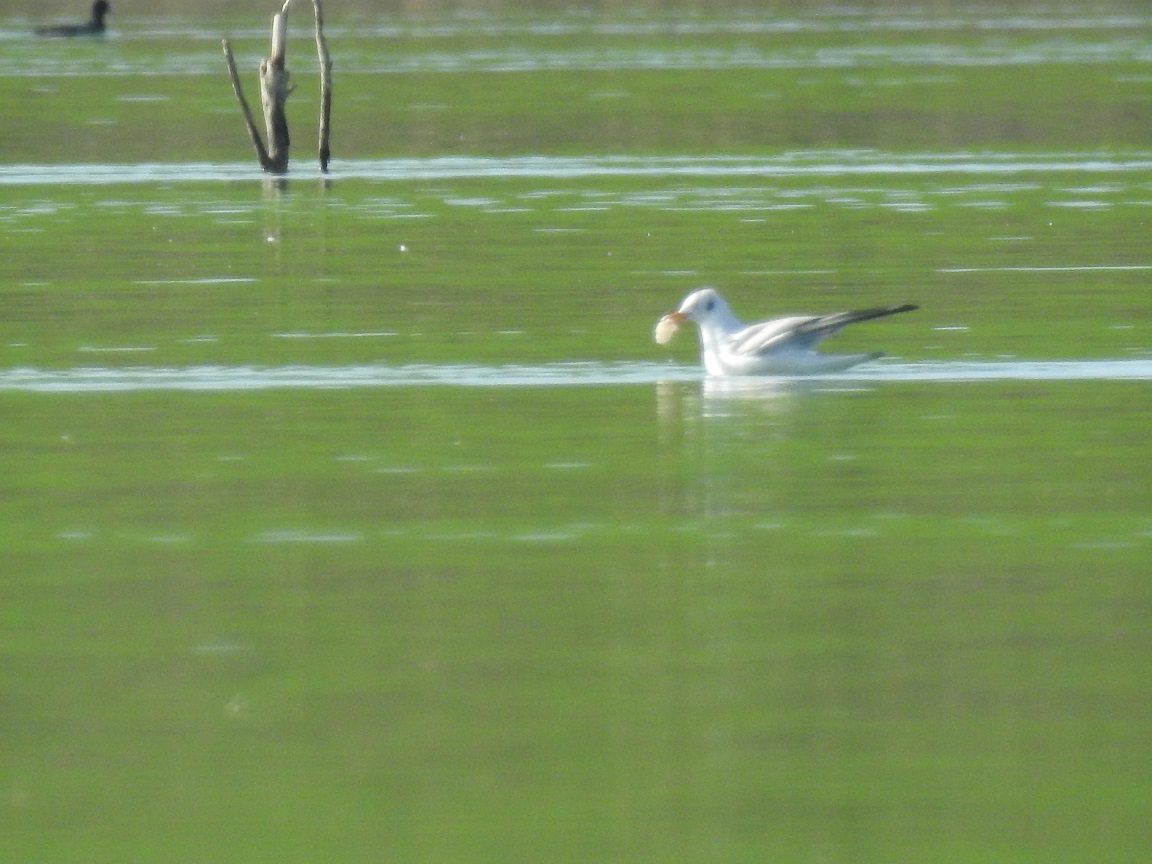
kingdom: Animalia
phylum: Chordata
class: Aves
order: Charadriiformes
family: Laridae
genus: Chroicocephalus
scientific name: Chroicocephalus ridibundus
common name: Black-headed gull
